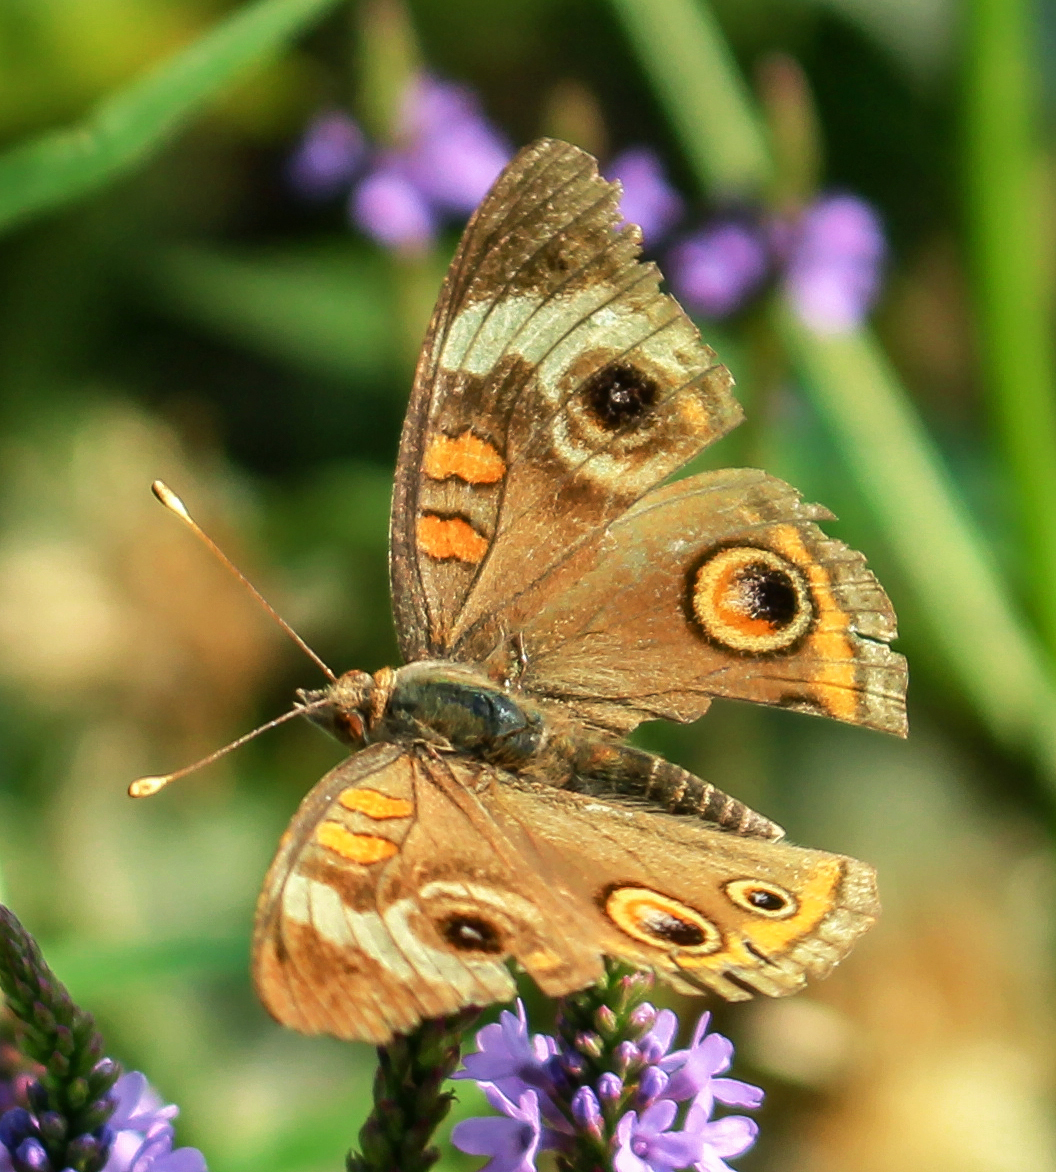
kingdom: Animalia
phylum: Arthropoda
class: Insecta
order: Lepidoptera
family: Nymphalidae
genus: Junonia
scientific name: Junonia coenia
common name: Common buckeye
